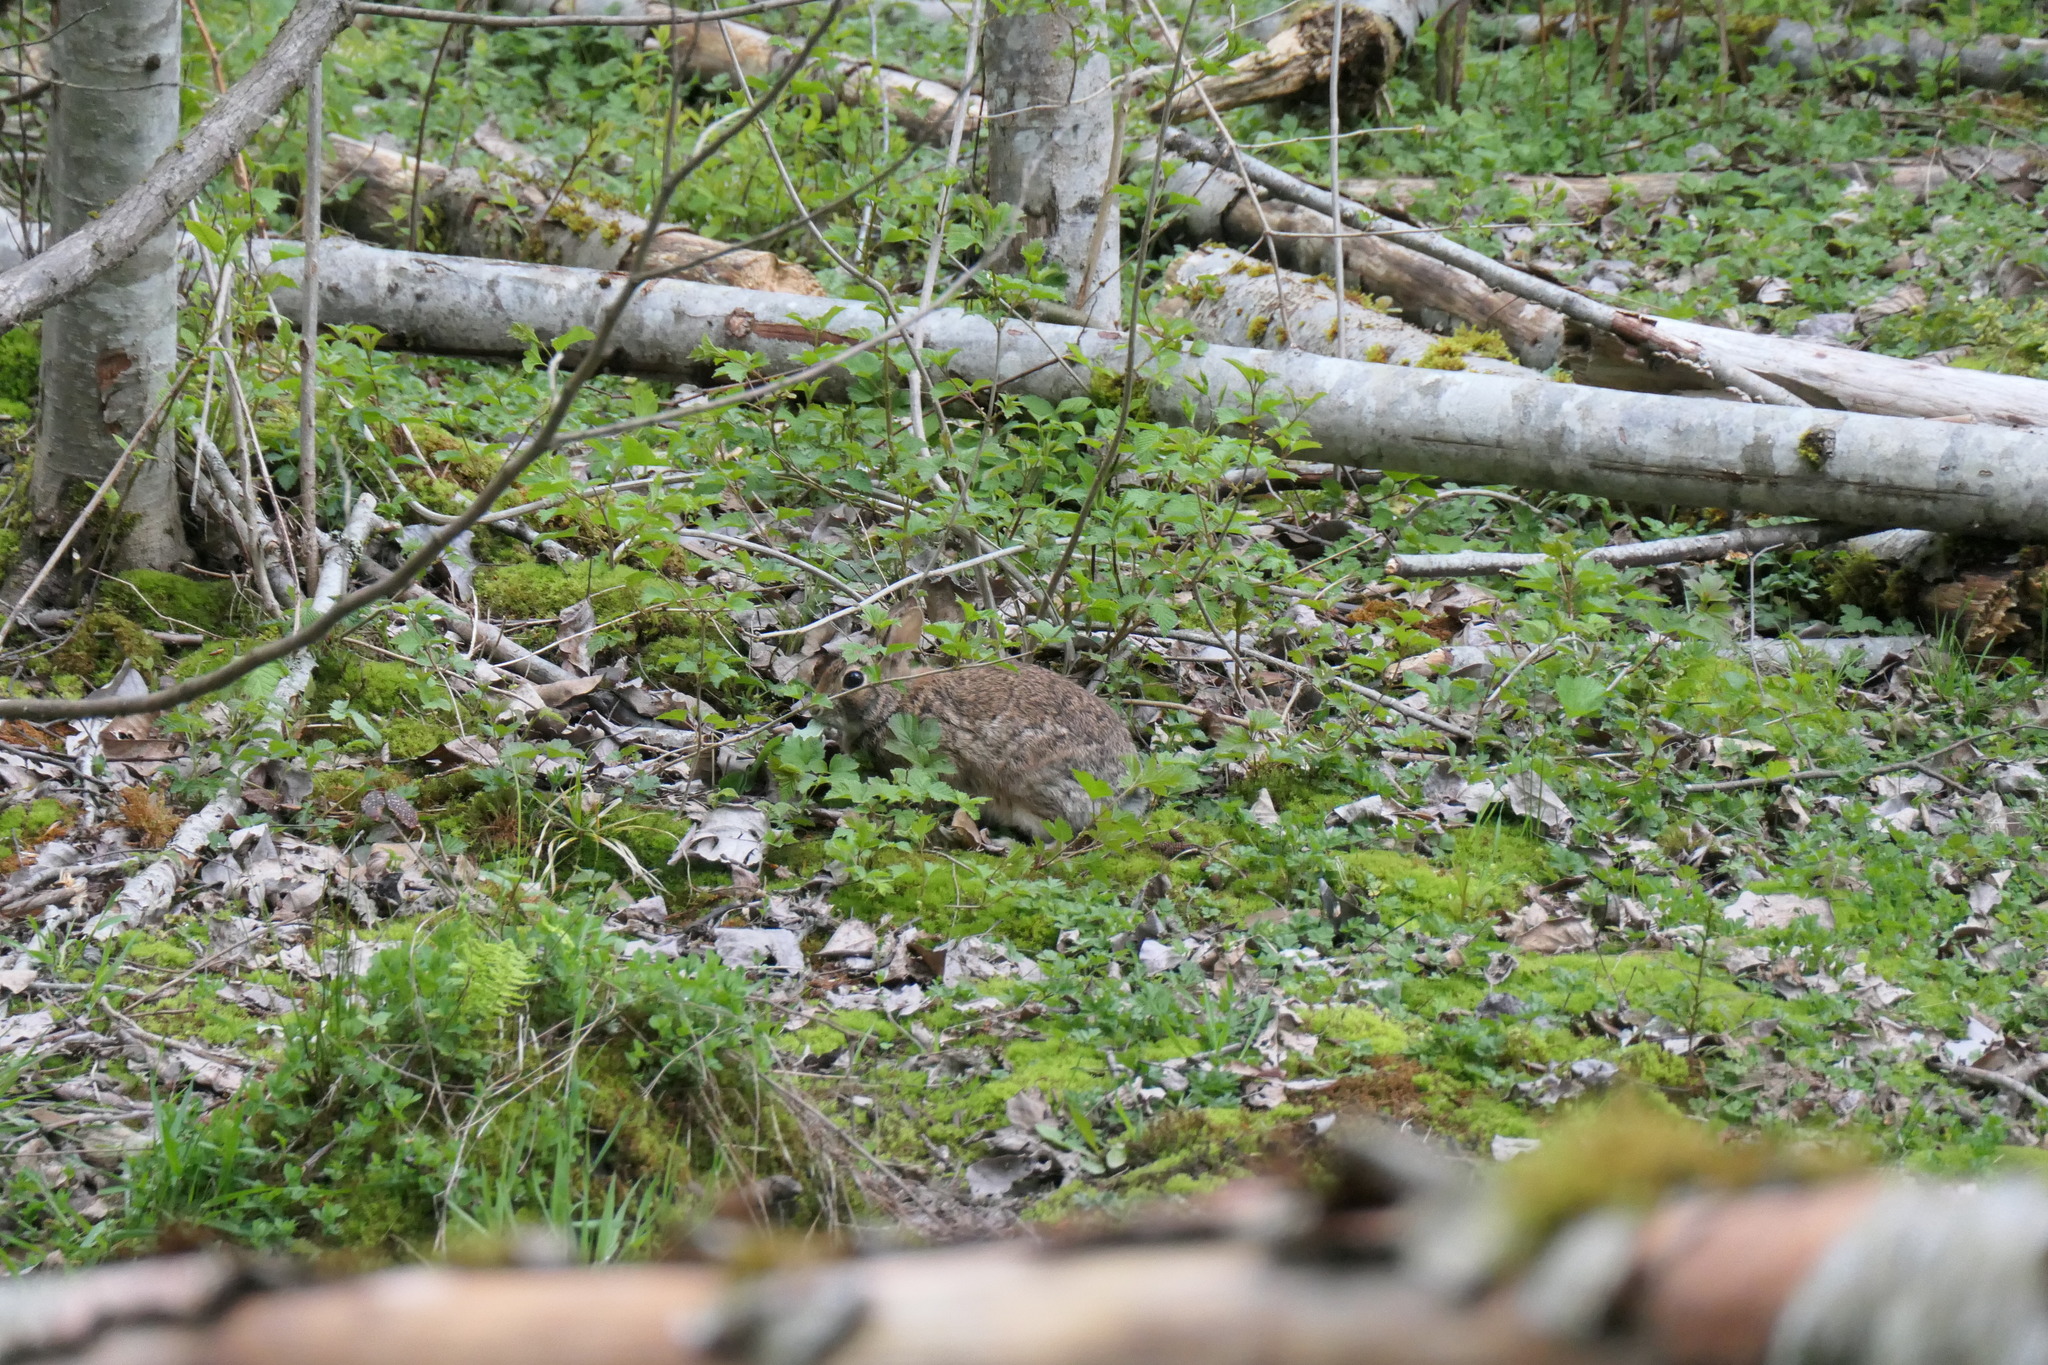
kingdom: Animalia
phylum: Chordata
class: Mammalia
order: Lagomorpha
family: Leporidae
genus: Sylvilagus
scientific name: Sylvilagus floridanus
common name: Eastern cottontail
